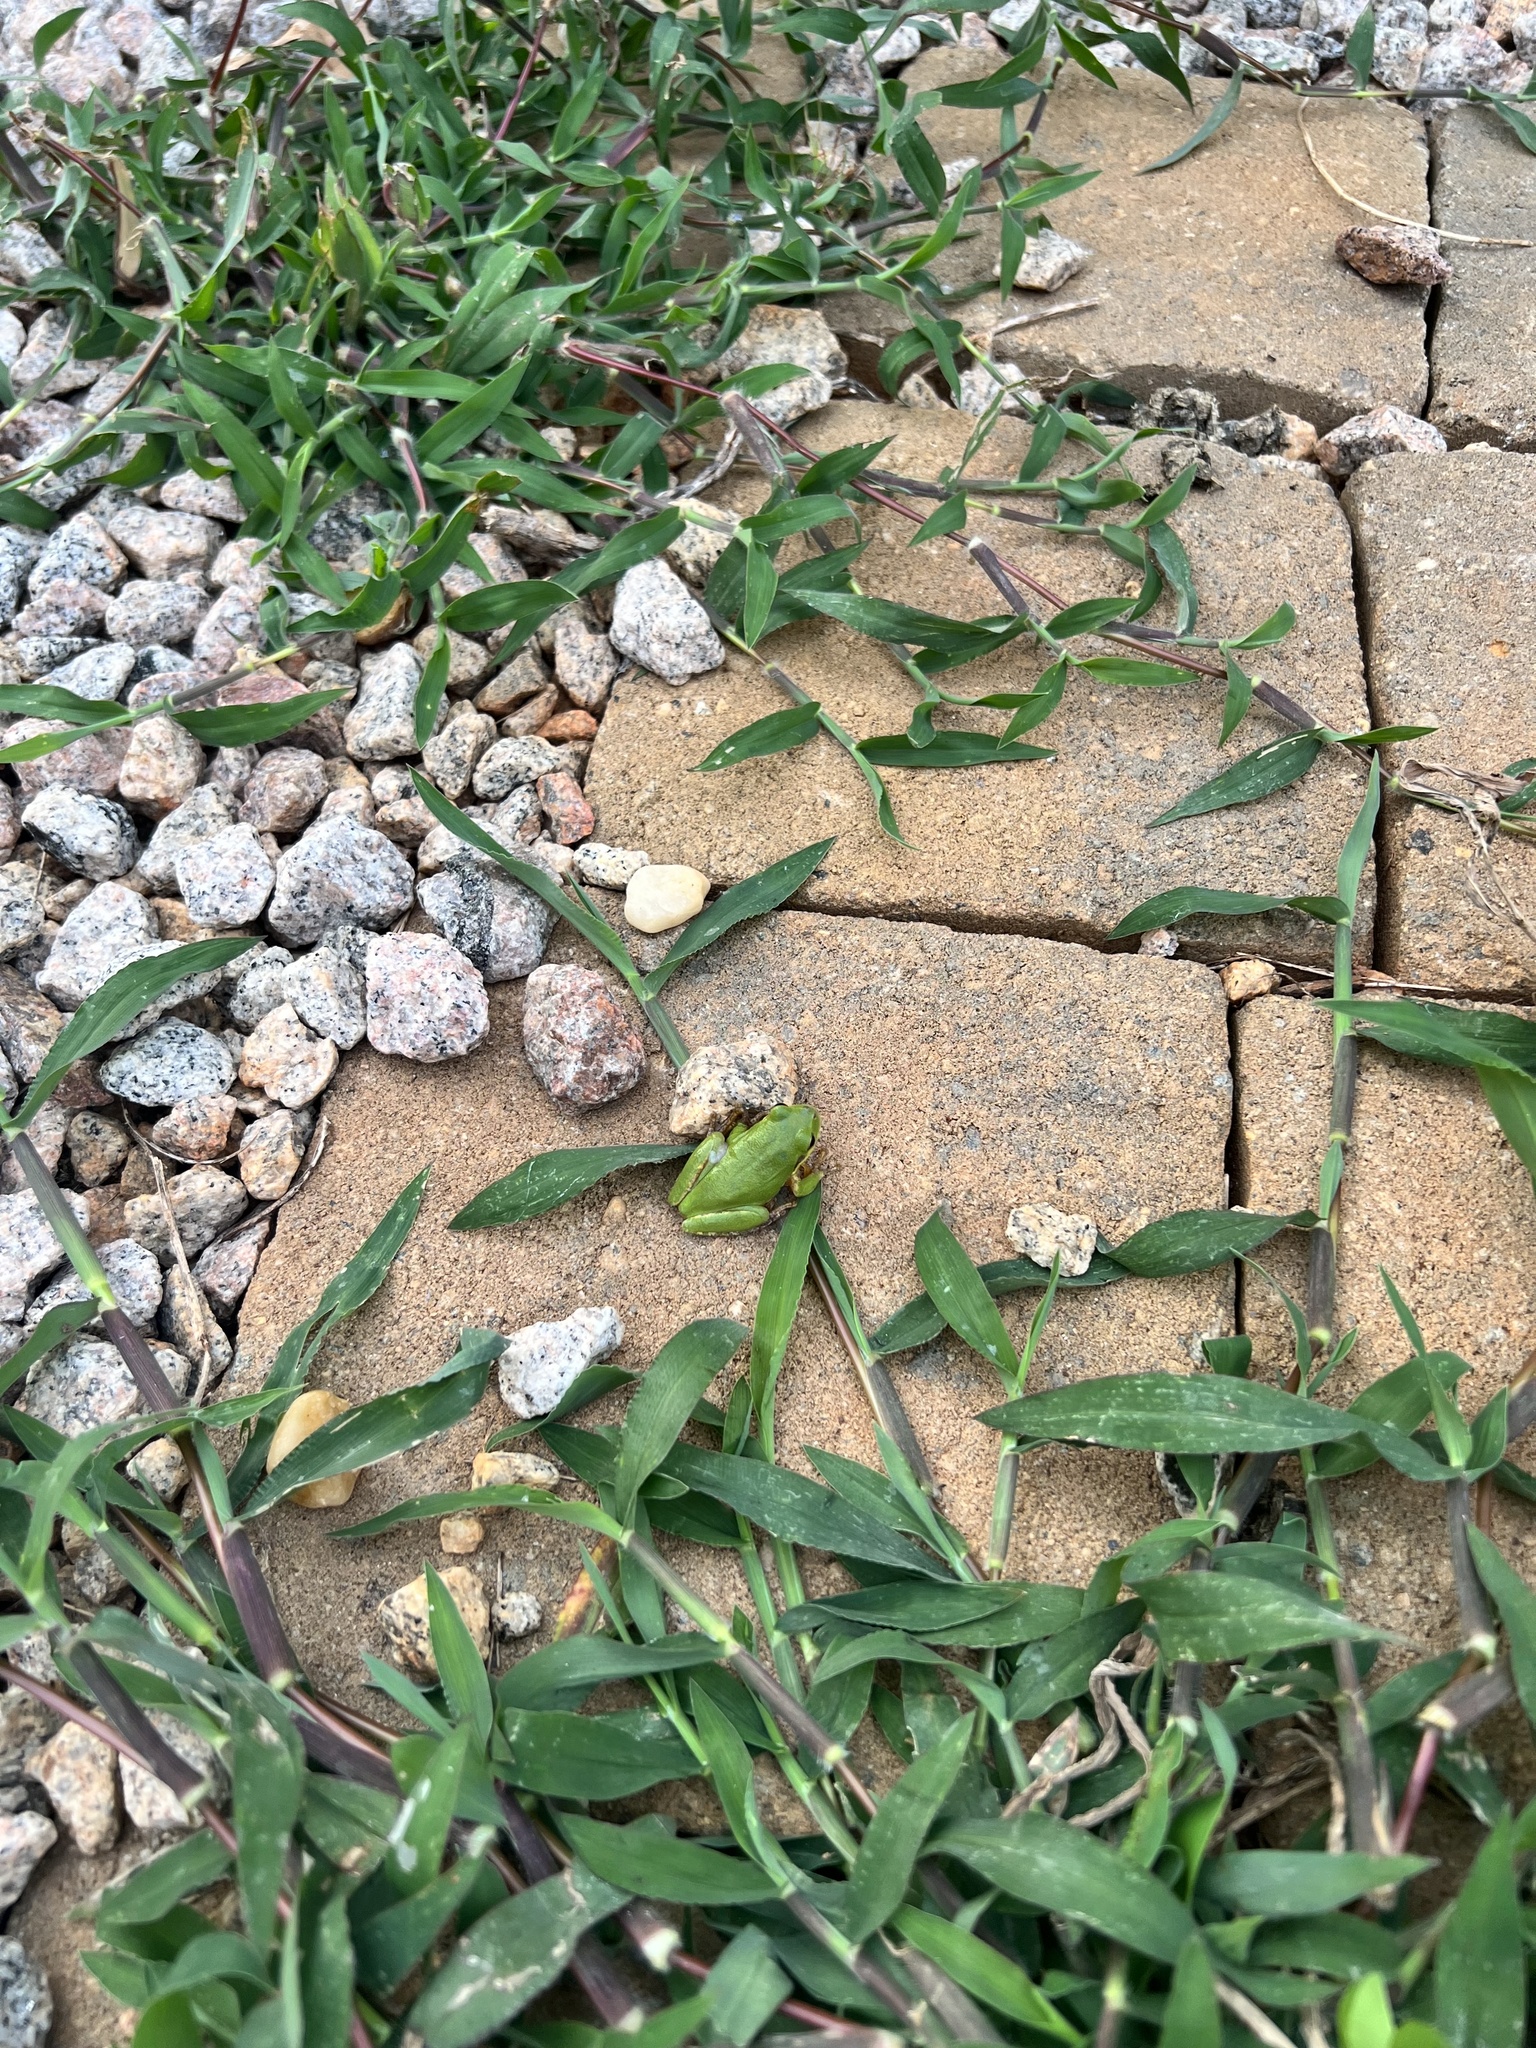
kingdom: Animalia
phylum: Chordata
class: Amphibia
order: Anura
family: Hylidae
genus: Dryophytes
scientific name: Dryophytes squirellus
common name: Squirrel treefrog
